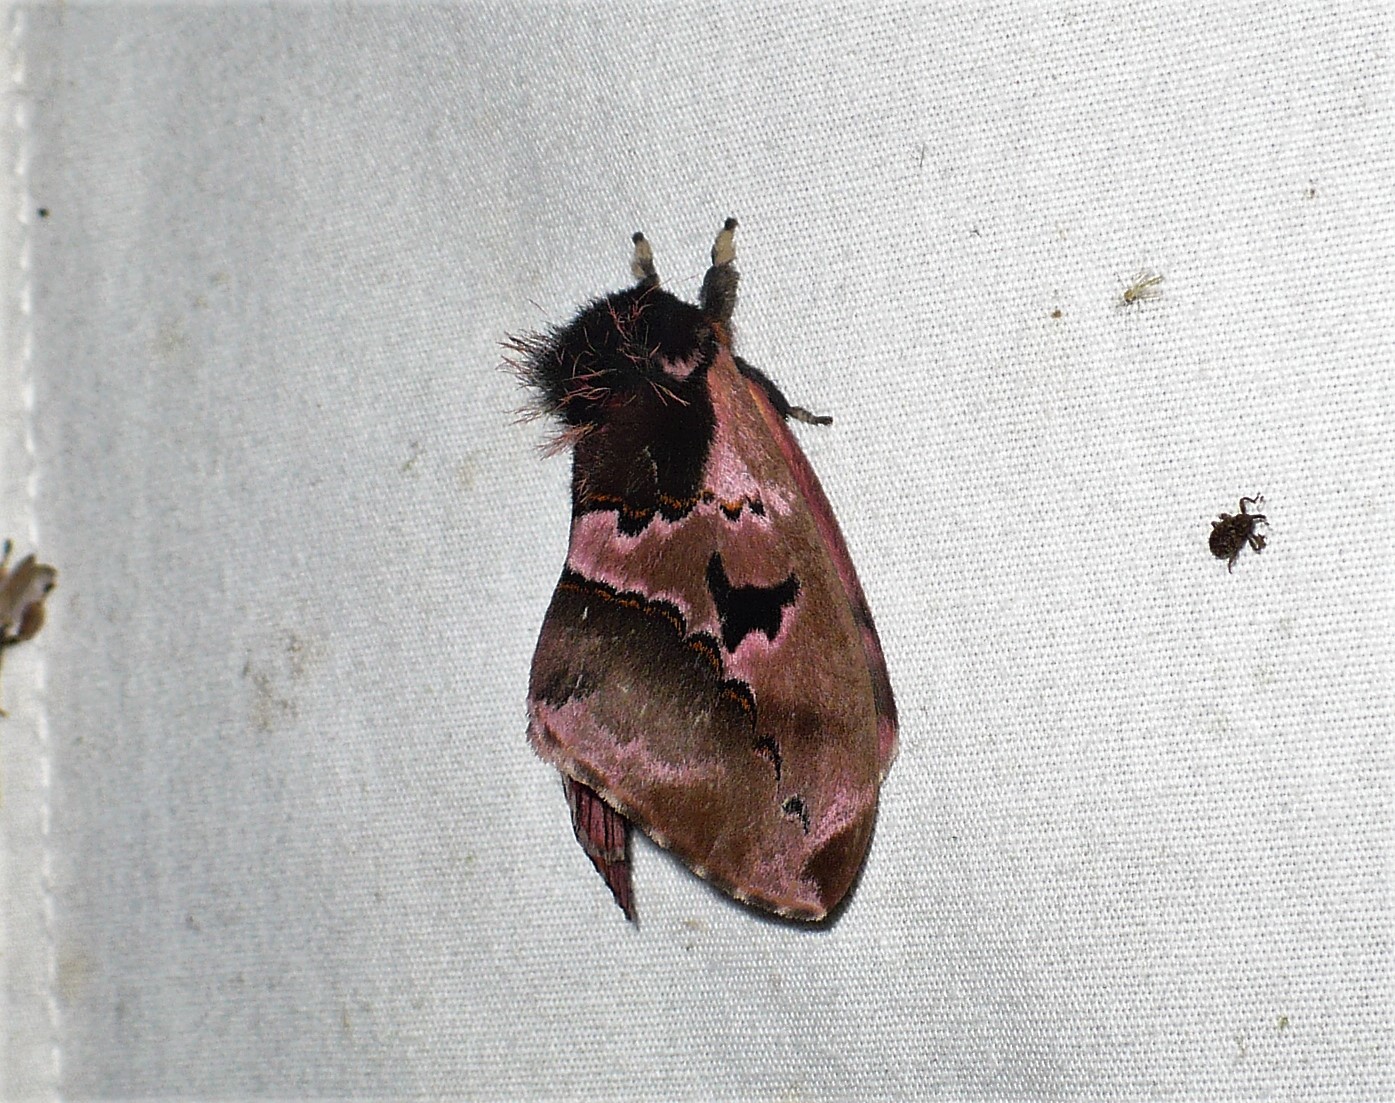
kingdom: Animalia
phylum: Arthropoda
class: Insecta
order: Lepidoptera
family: Saturniidae
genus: Molippa
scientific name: Molippa tusina
